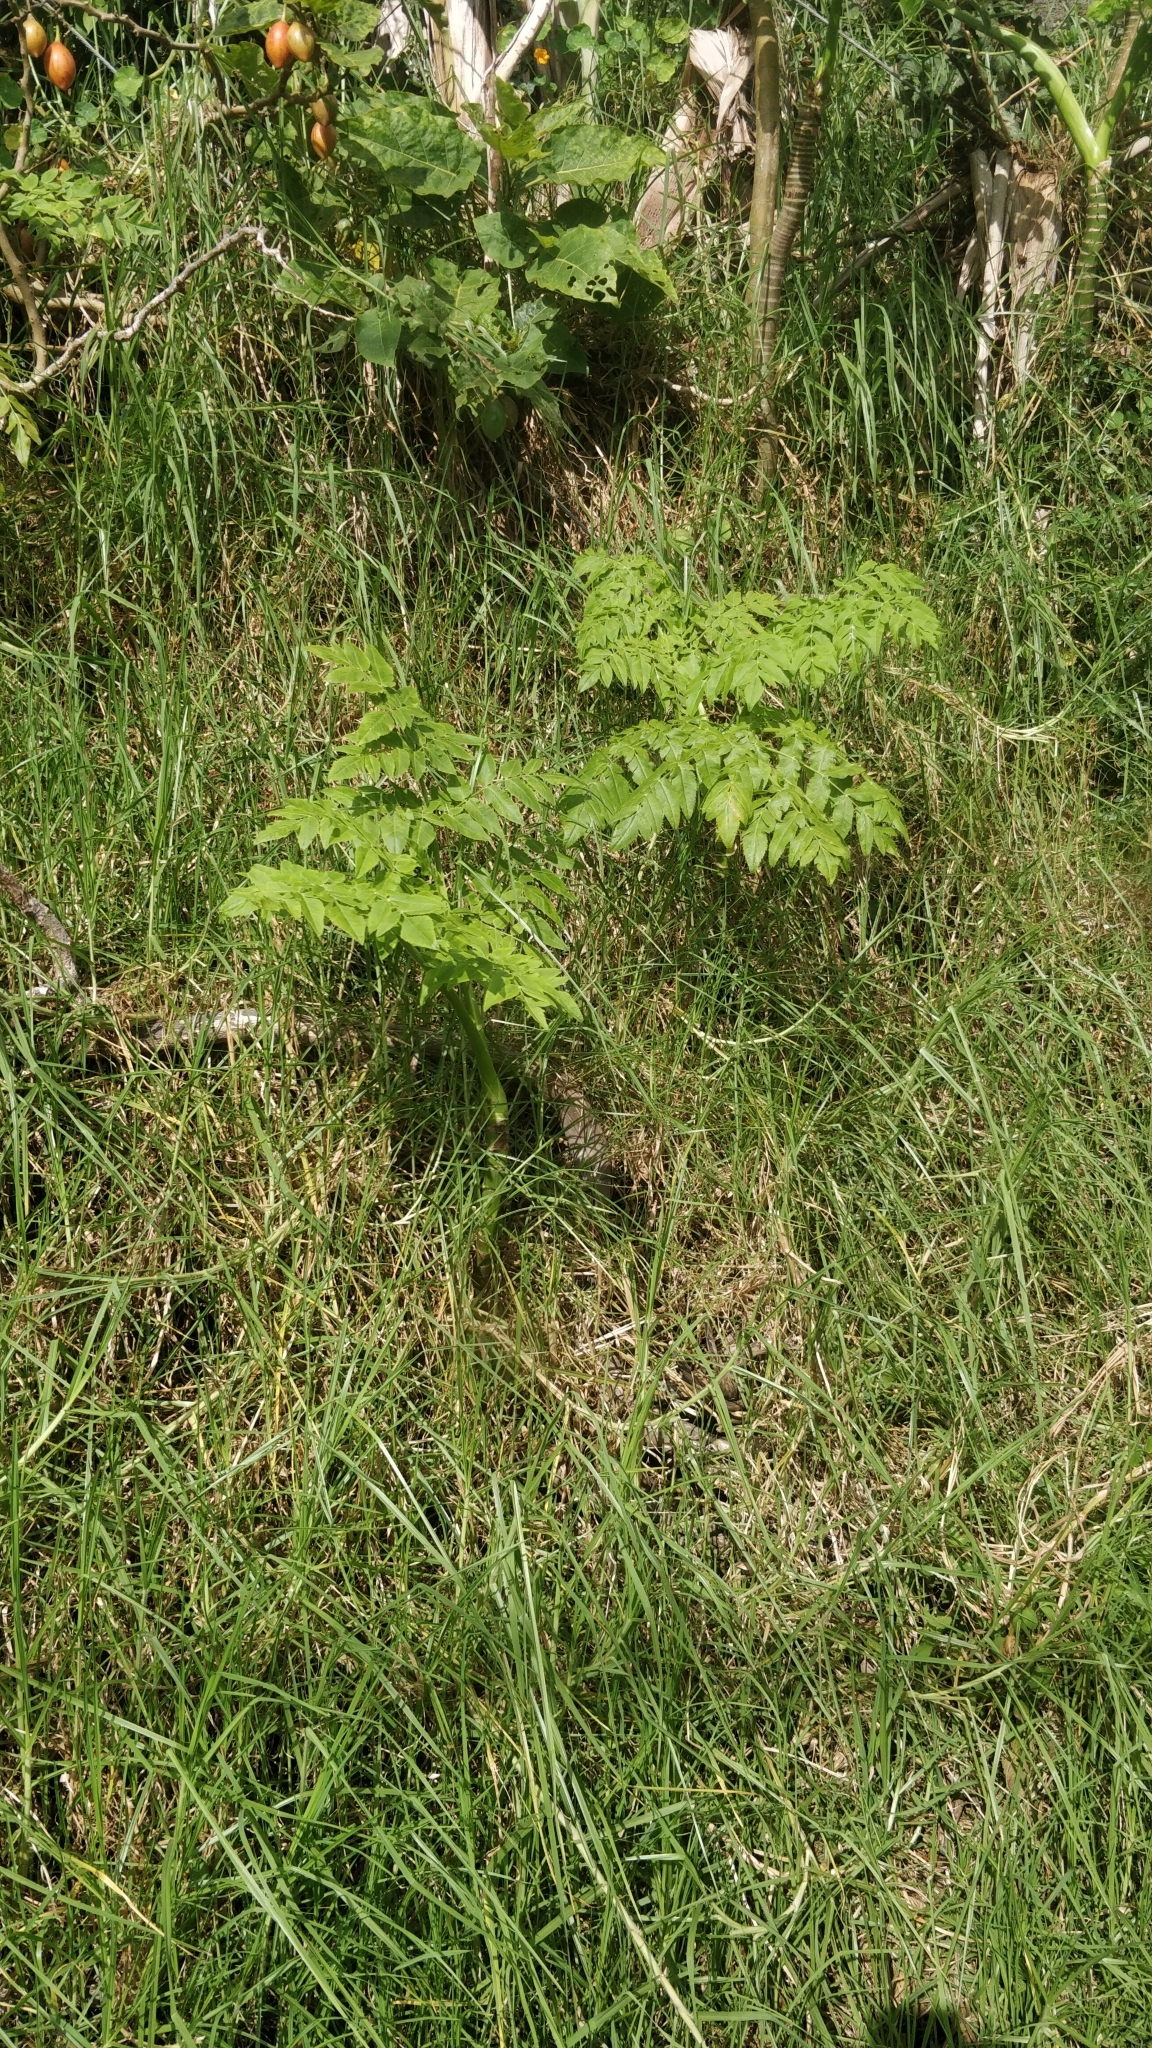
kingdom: Plantae
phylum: Tracheophyta
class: Magnoliopsida
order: Apiales
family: Apiaceae
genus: Daucus
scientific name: Daucus decipiens
